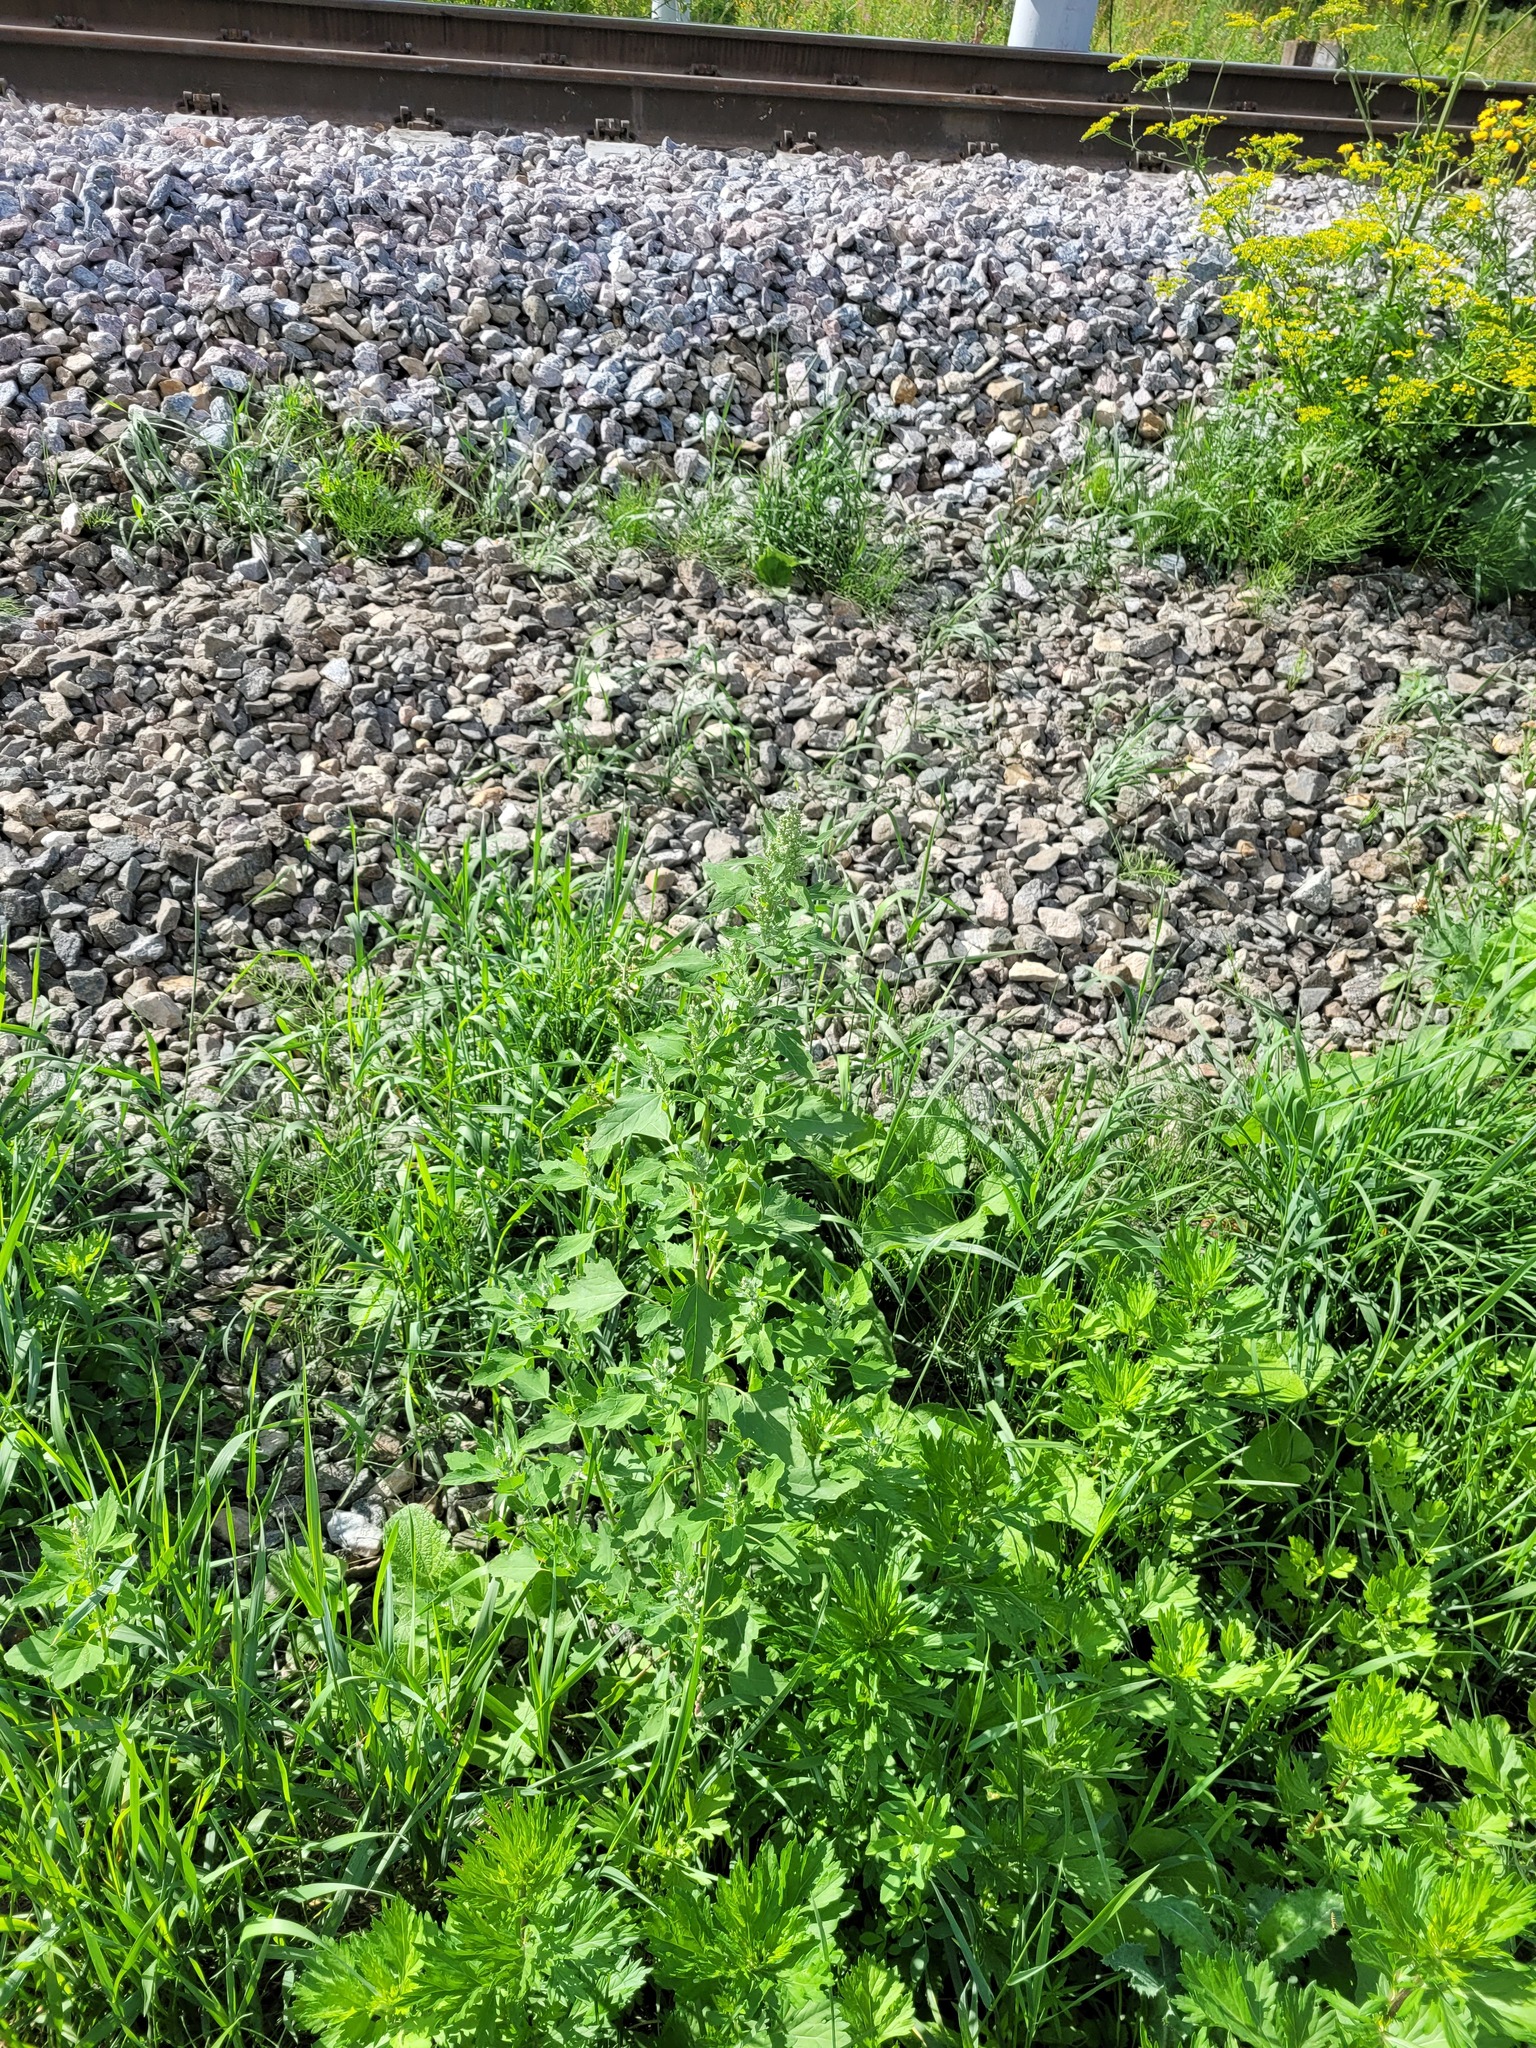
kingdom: Plantae
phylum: Tracheophyta
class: Magnoliopsida
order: Caryophyllales
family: Amaranthaceae
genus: Chenopodium
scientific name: Chenopodium album
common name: Fat-hen
